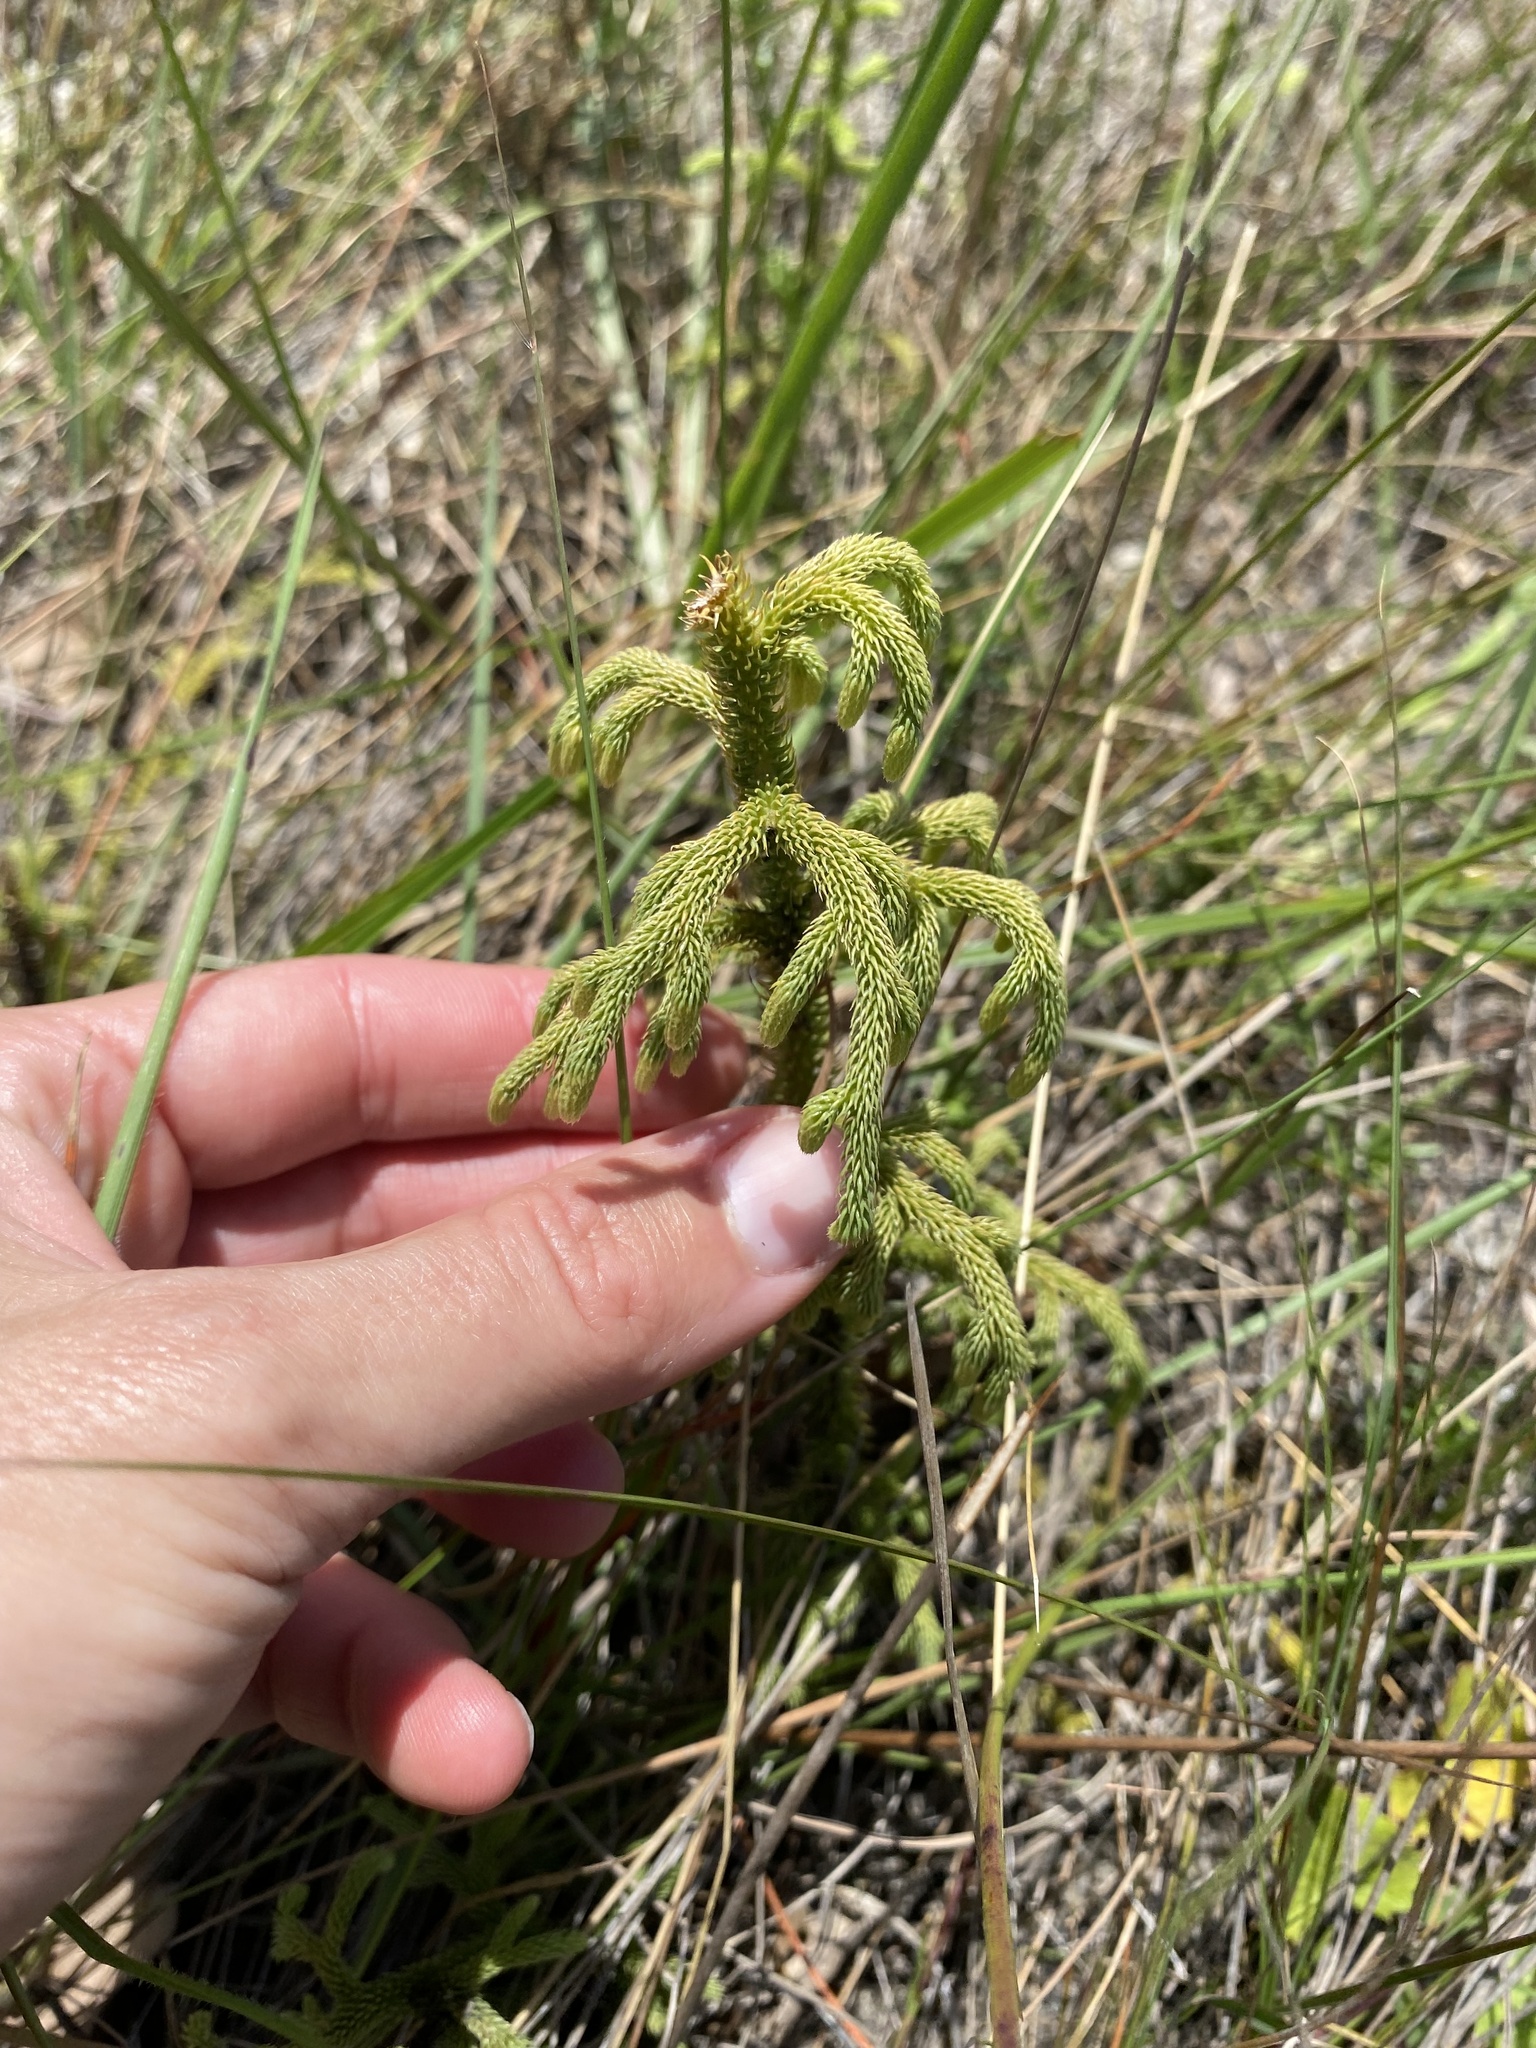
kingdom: Plantae
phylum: Tracheophyta
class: Lycopodiopsida
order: Lycopodiales
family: Lycopodiaceae
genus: Palhinhaea
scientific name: Palhinhaea cernua
